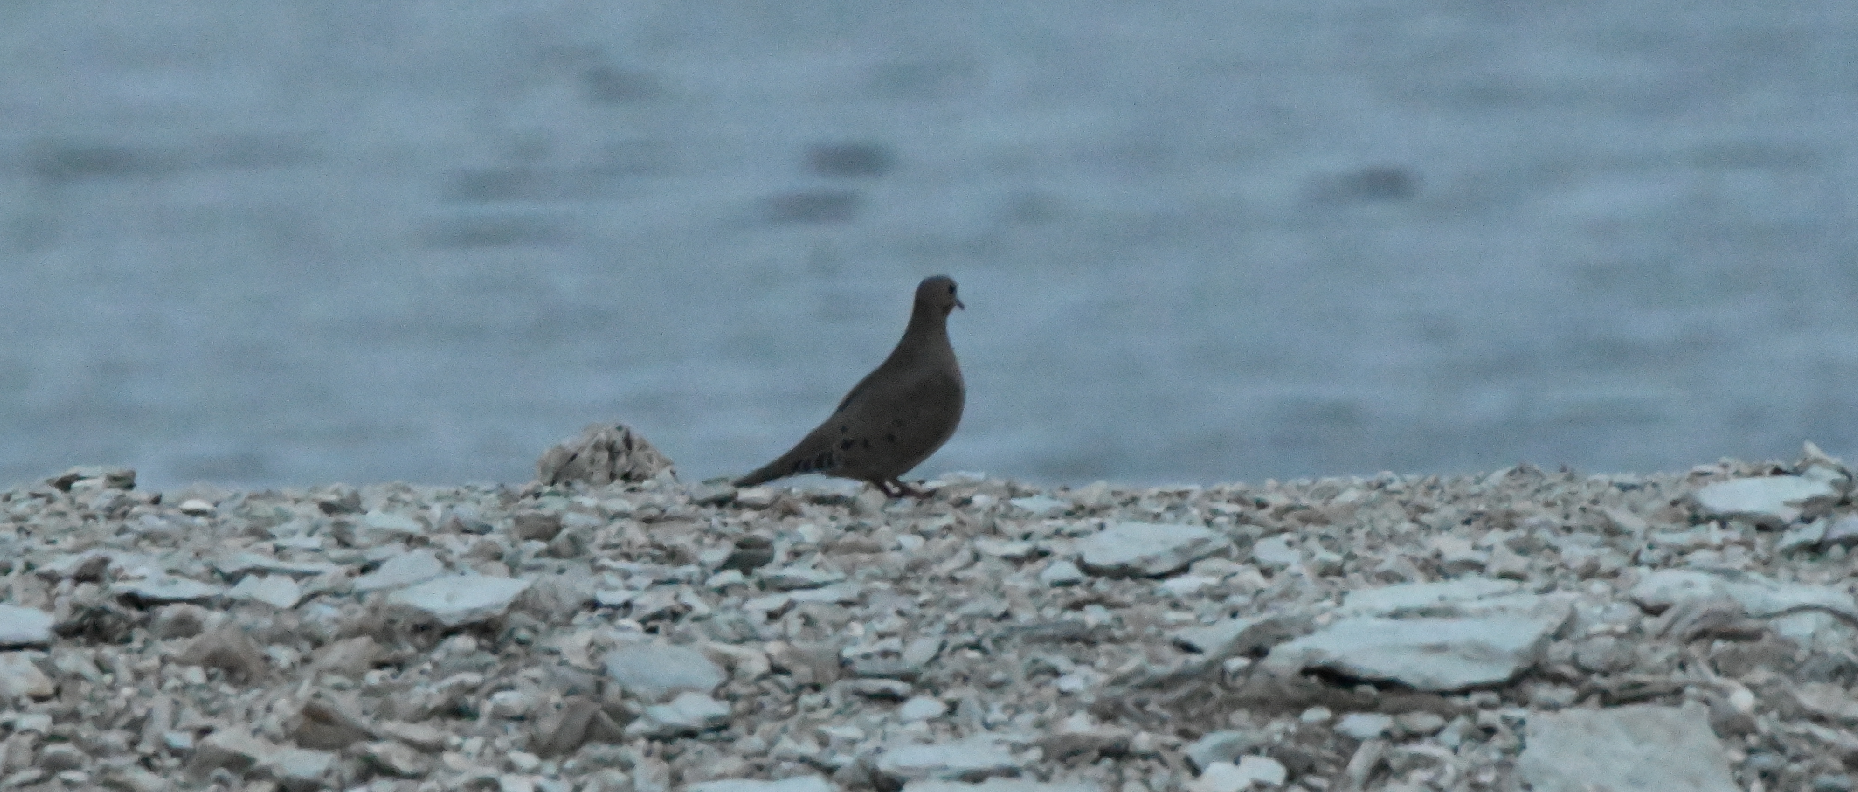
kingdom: Animalia
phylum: Chordata
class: Aves
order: Columbiformes
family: Columbidae
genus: Zenaida
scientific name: Zenaida macroura
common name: Mourning dove
